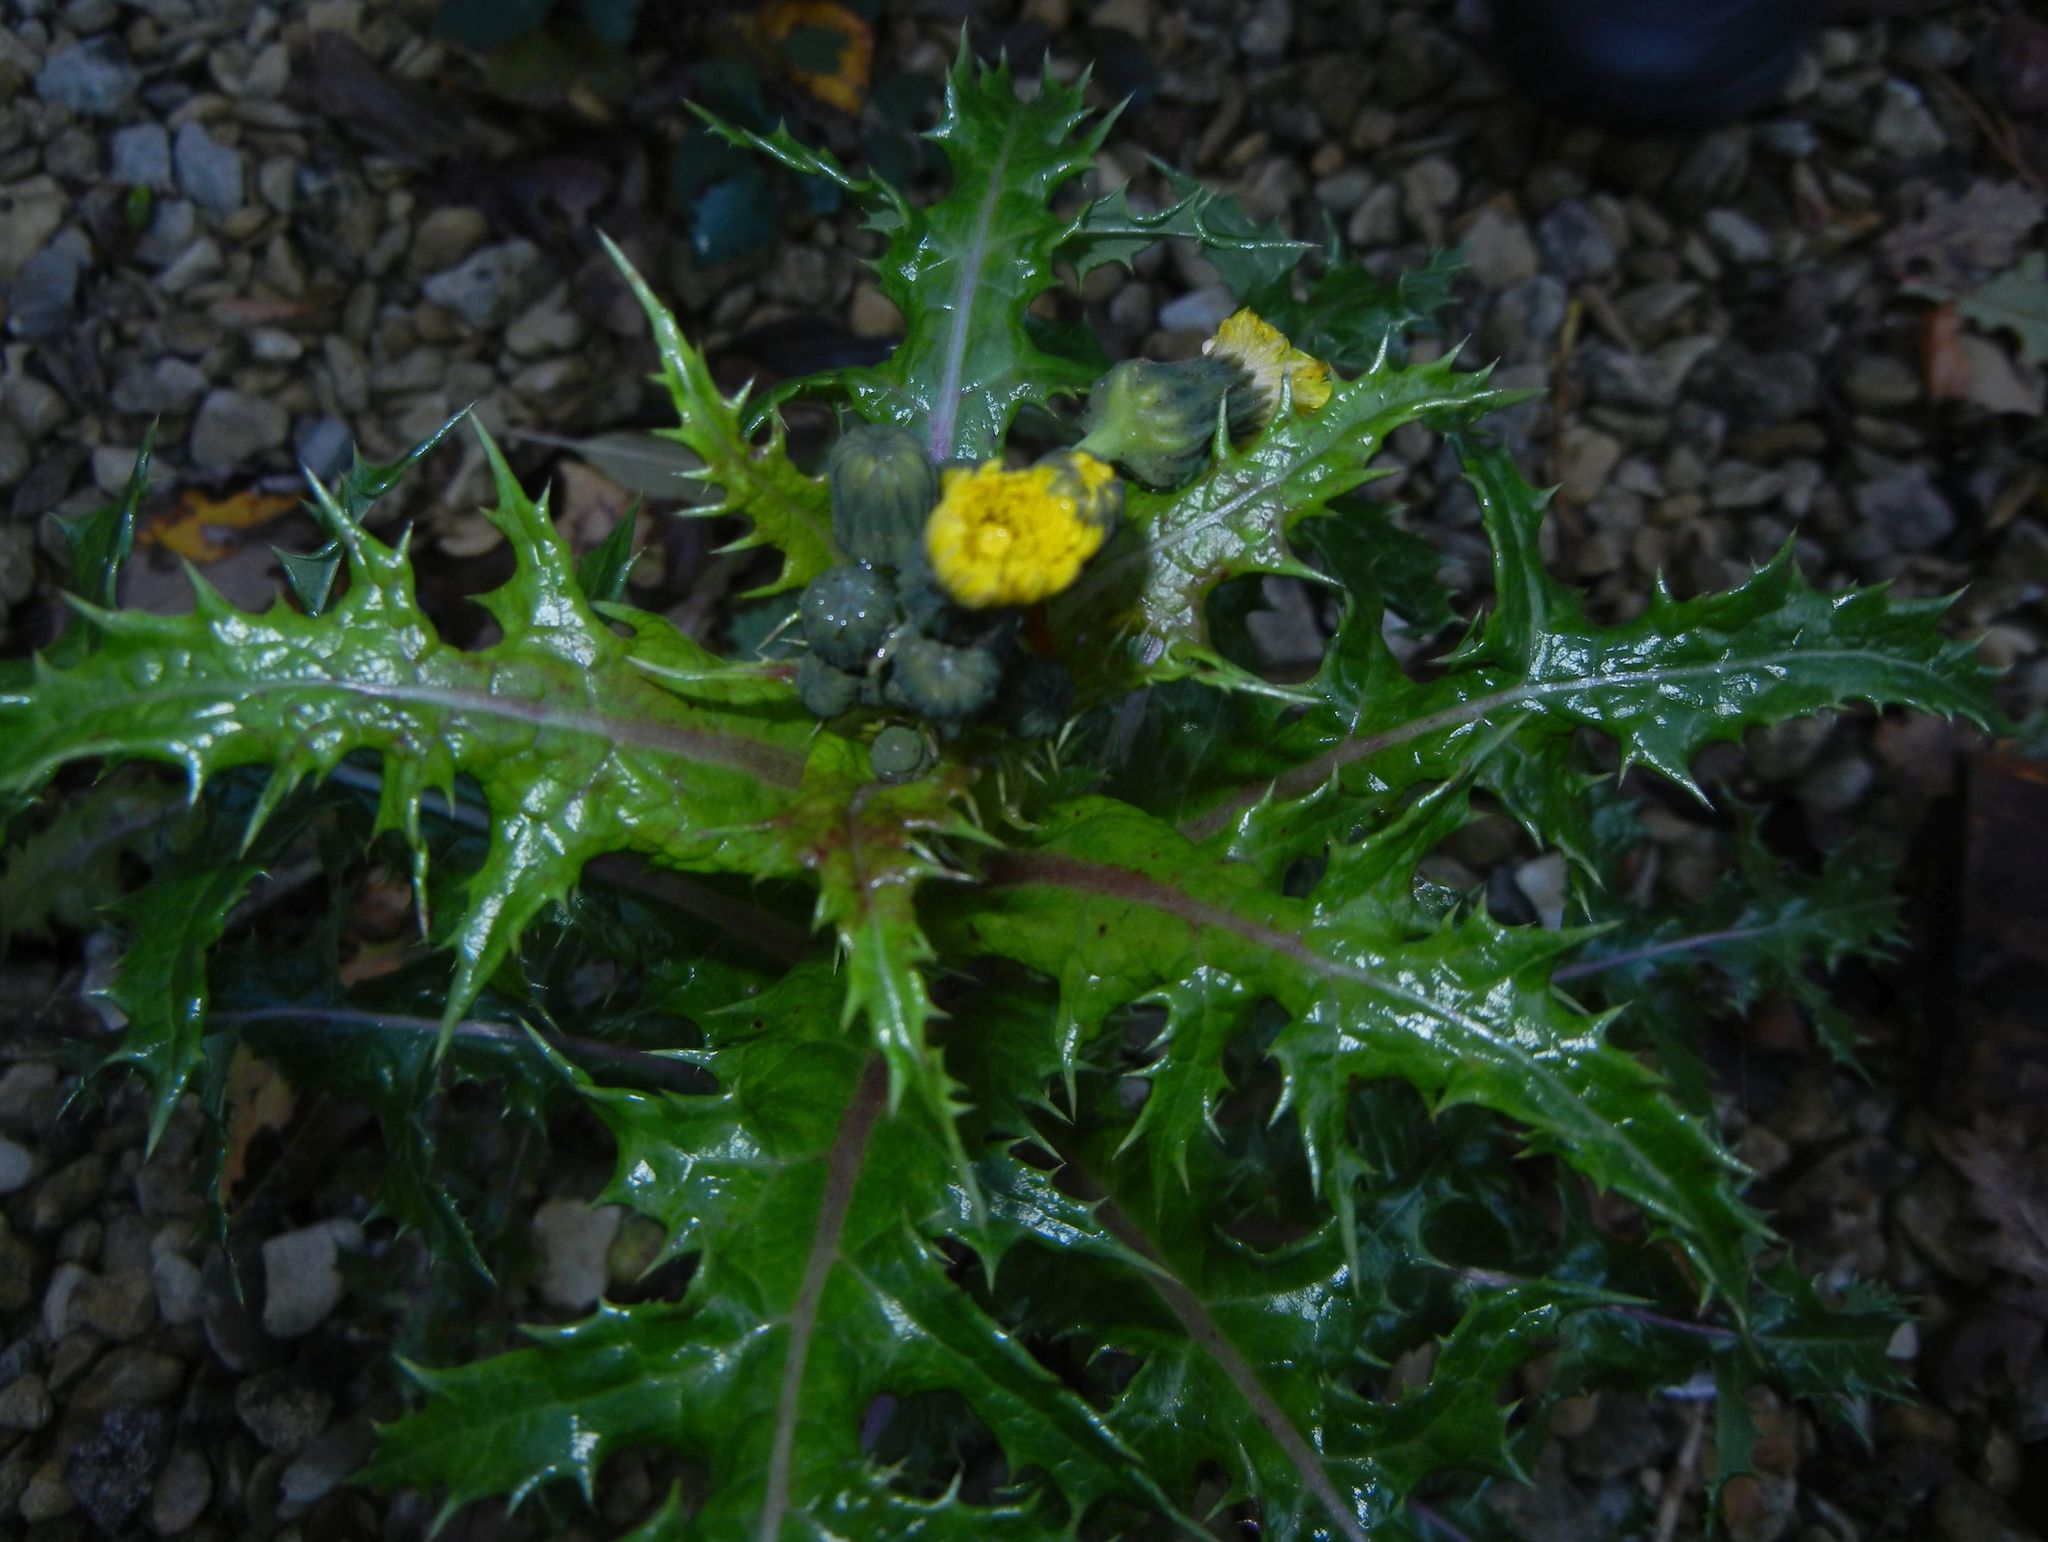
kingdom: Plantae
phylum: Tracheophyta
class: Magnoliopsida
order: Asterales
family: Asteraceae
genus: Sonchus
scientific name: Sonchus asper
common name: Prickly sow-thistle
